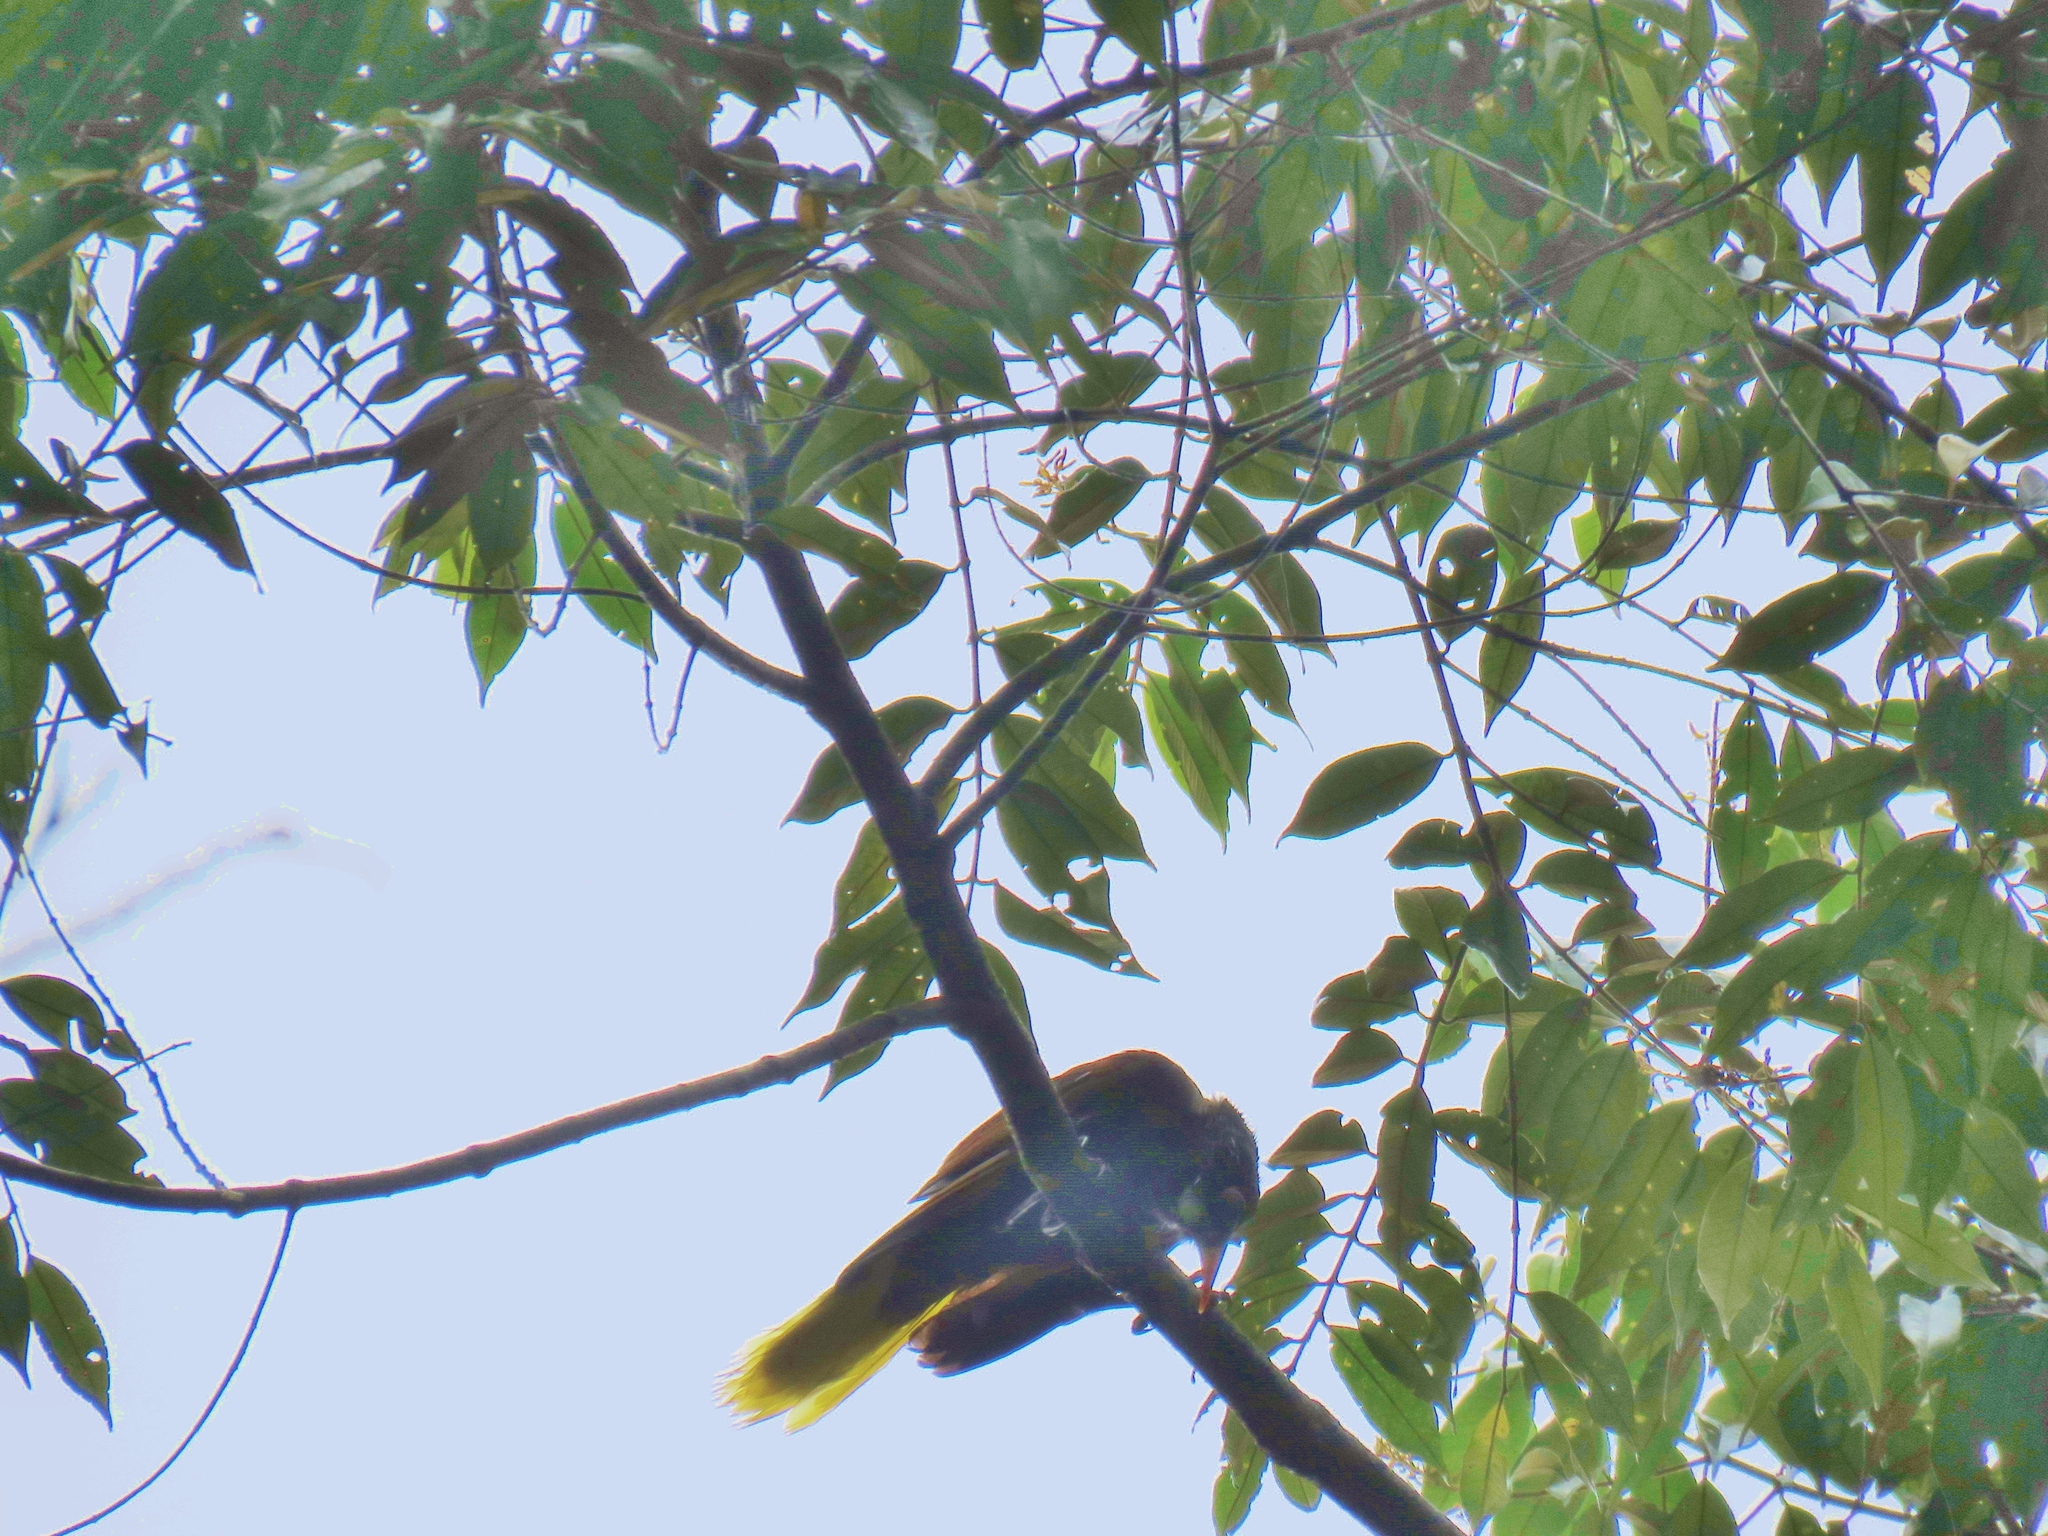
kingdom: Animalia
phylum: Chordata
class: Aves
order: Passeriformes
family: Icteridae
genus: Psarocolius
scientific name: Psarocolius montezuma
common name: Montezuma oropendola
